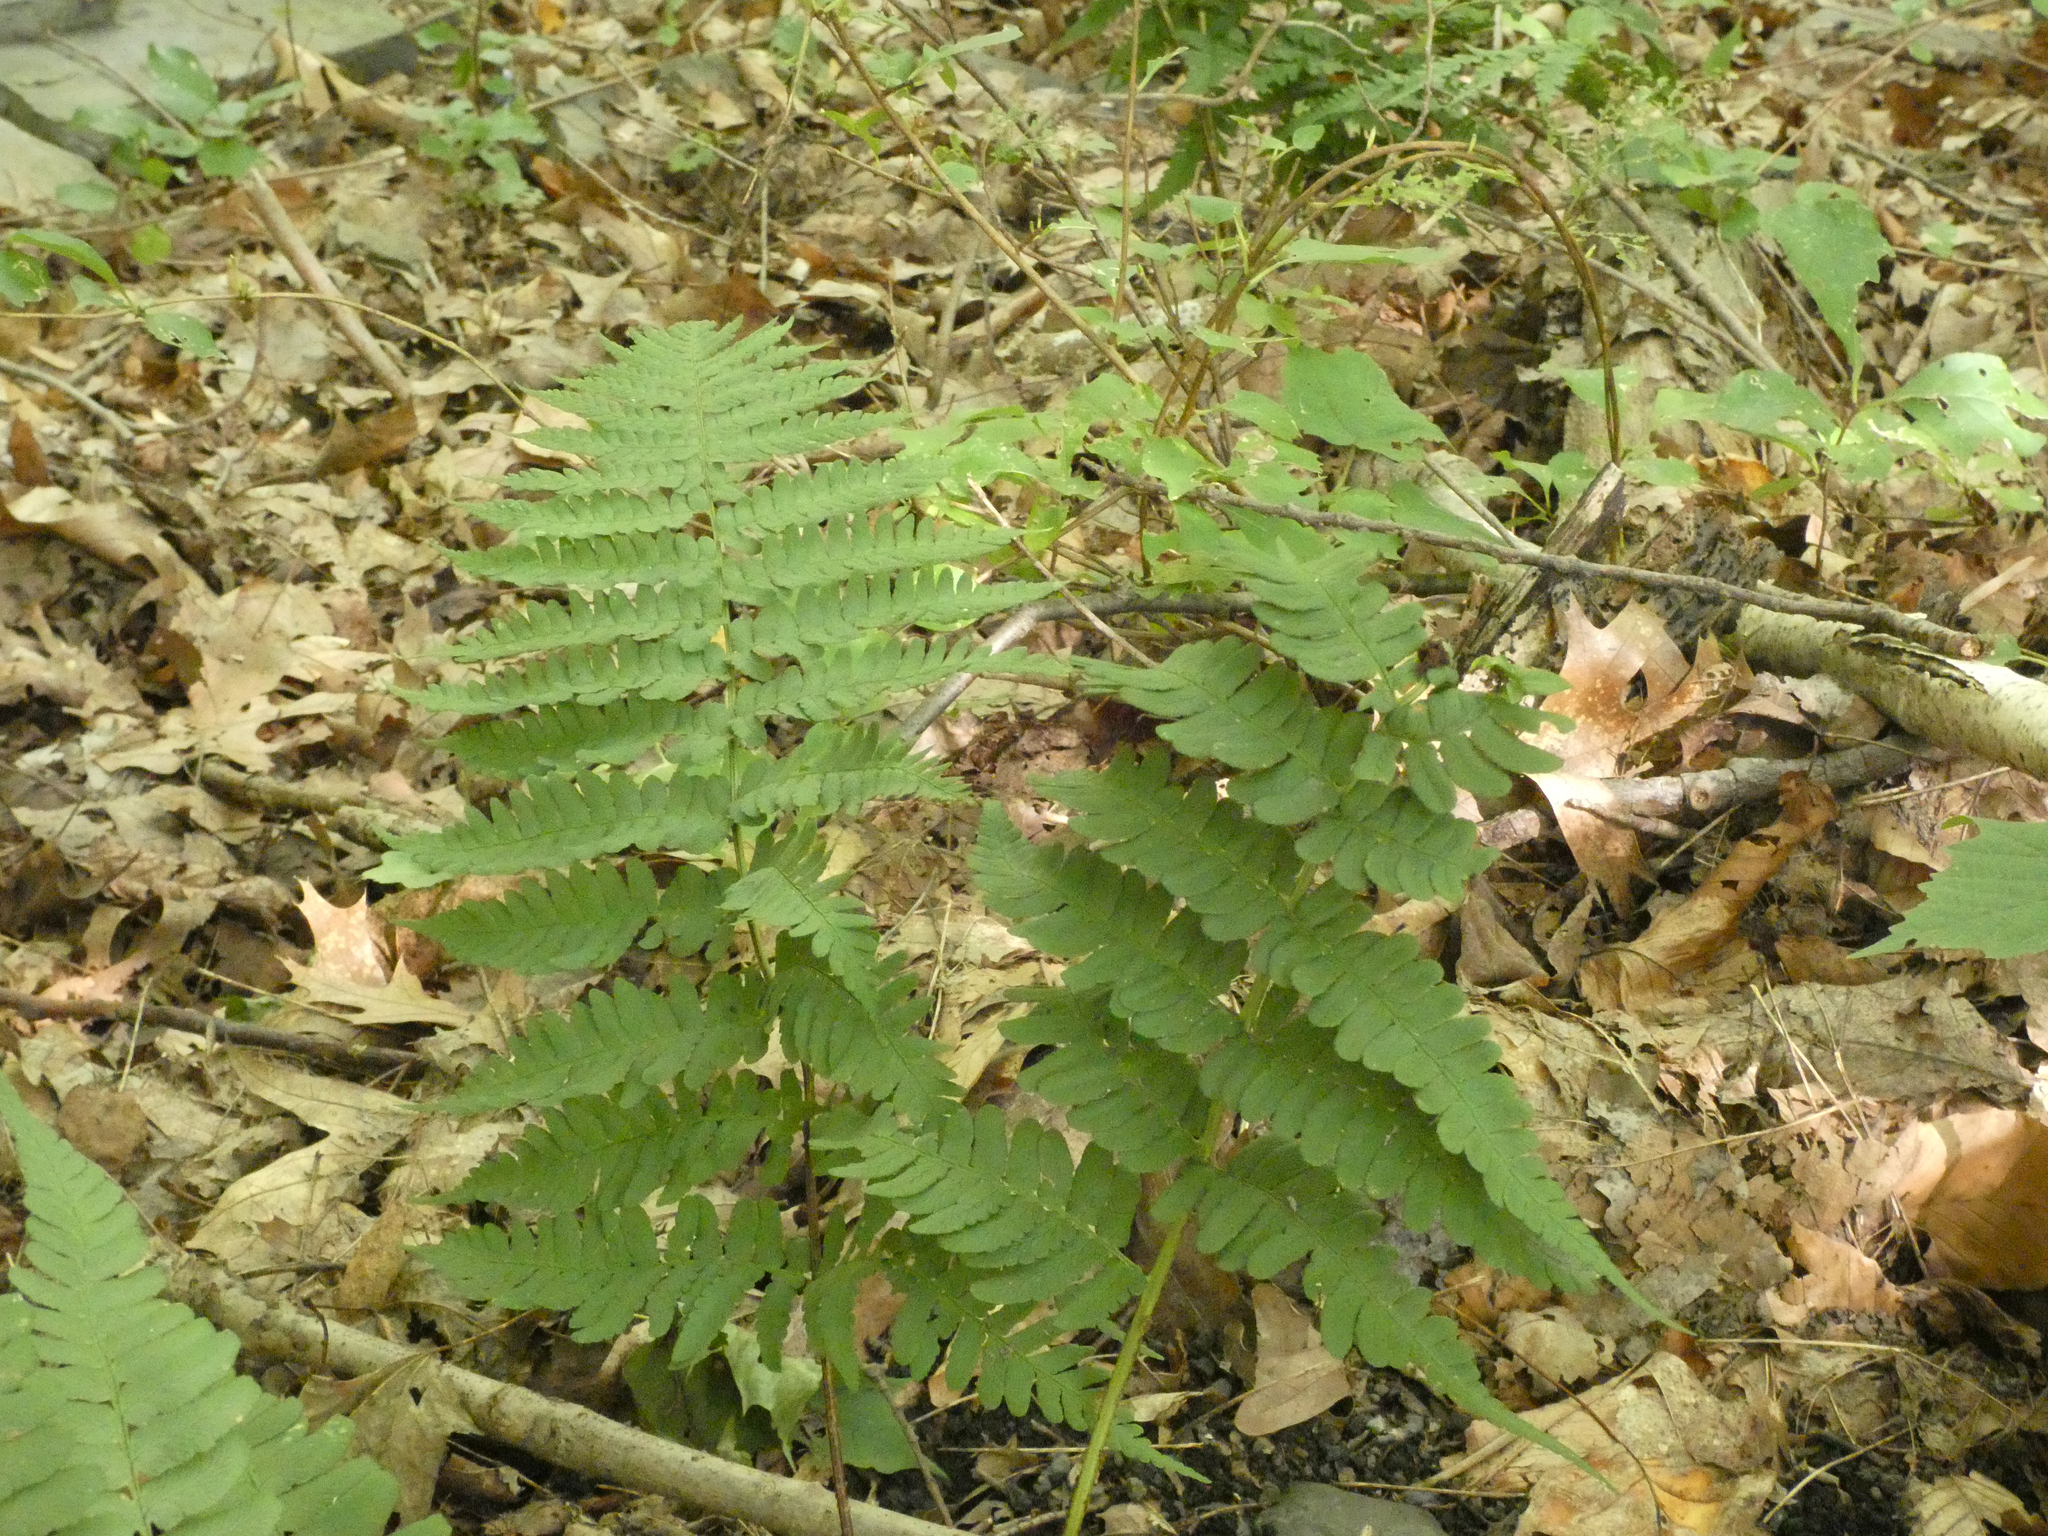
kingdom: Plantae
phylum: Tracheophyta
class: Polypodiopsida
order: Polypodiales
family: Dryopteridaceae
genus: Dryopteris
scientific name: Dryopteris marginalis
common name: Marginal wood fern
